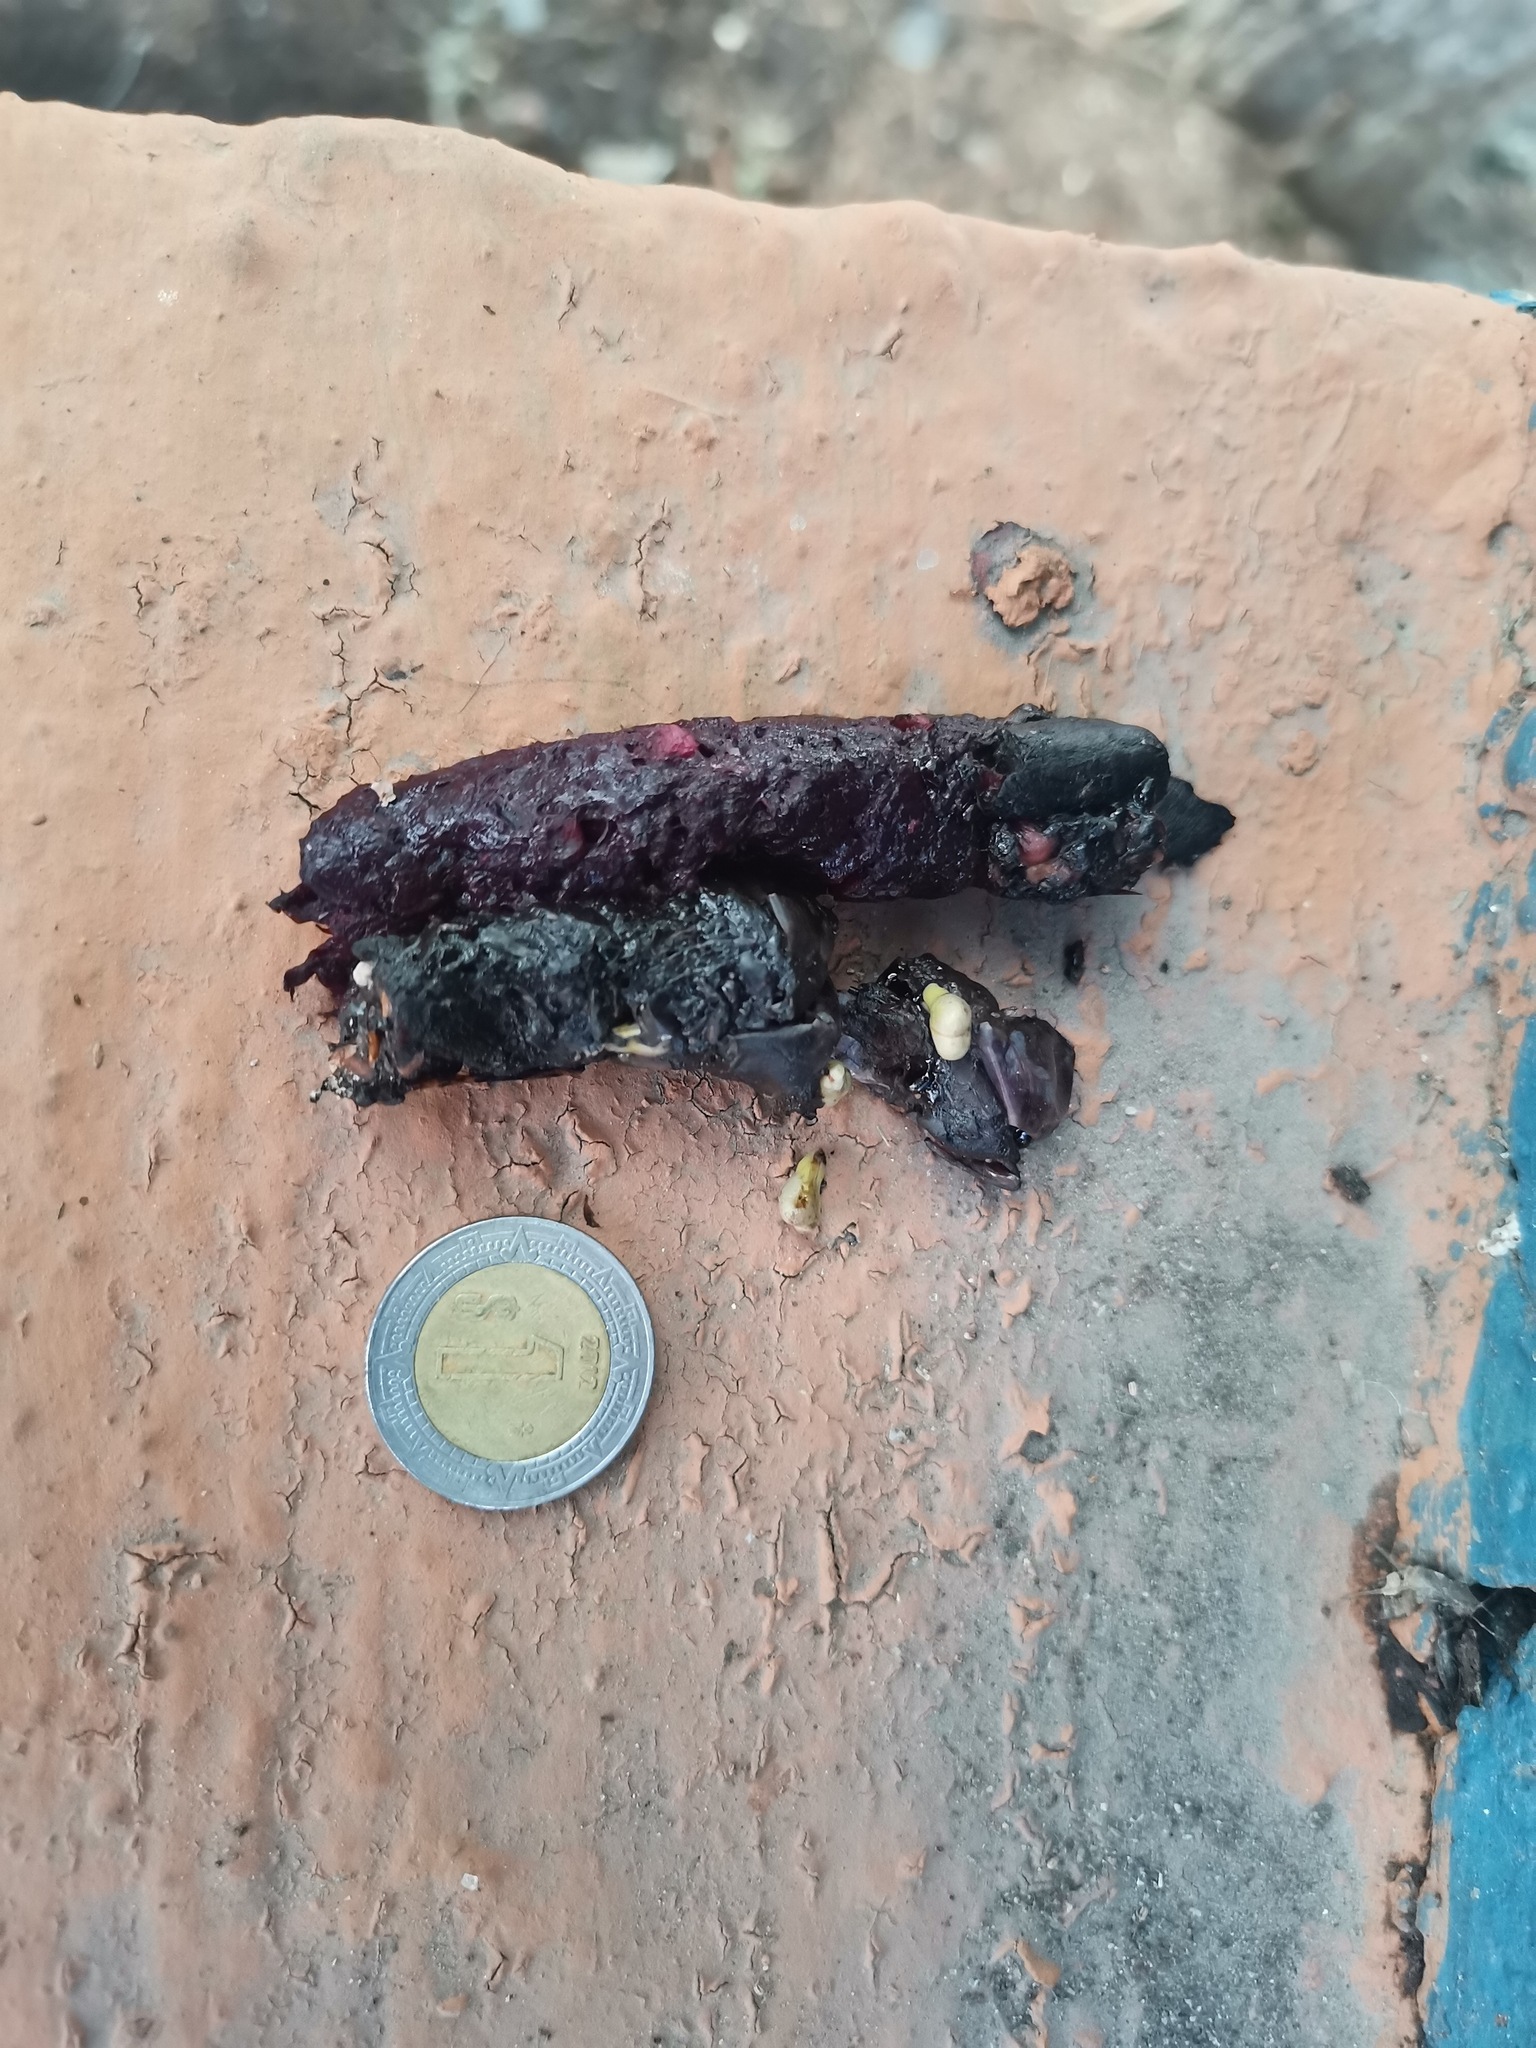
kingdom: Animalia
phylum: Chordata
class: Mammalia
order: Carnivora
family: Procyonidae
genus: Bassariscus
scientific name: Bassariscus astutus
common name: Ringtail
